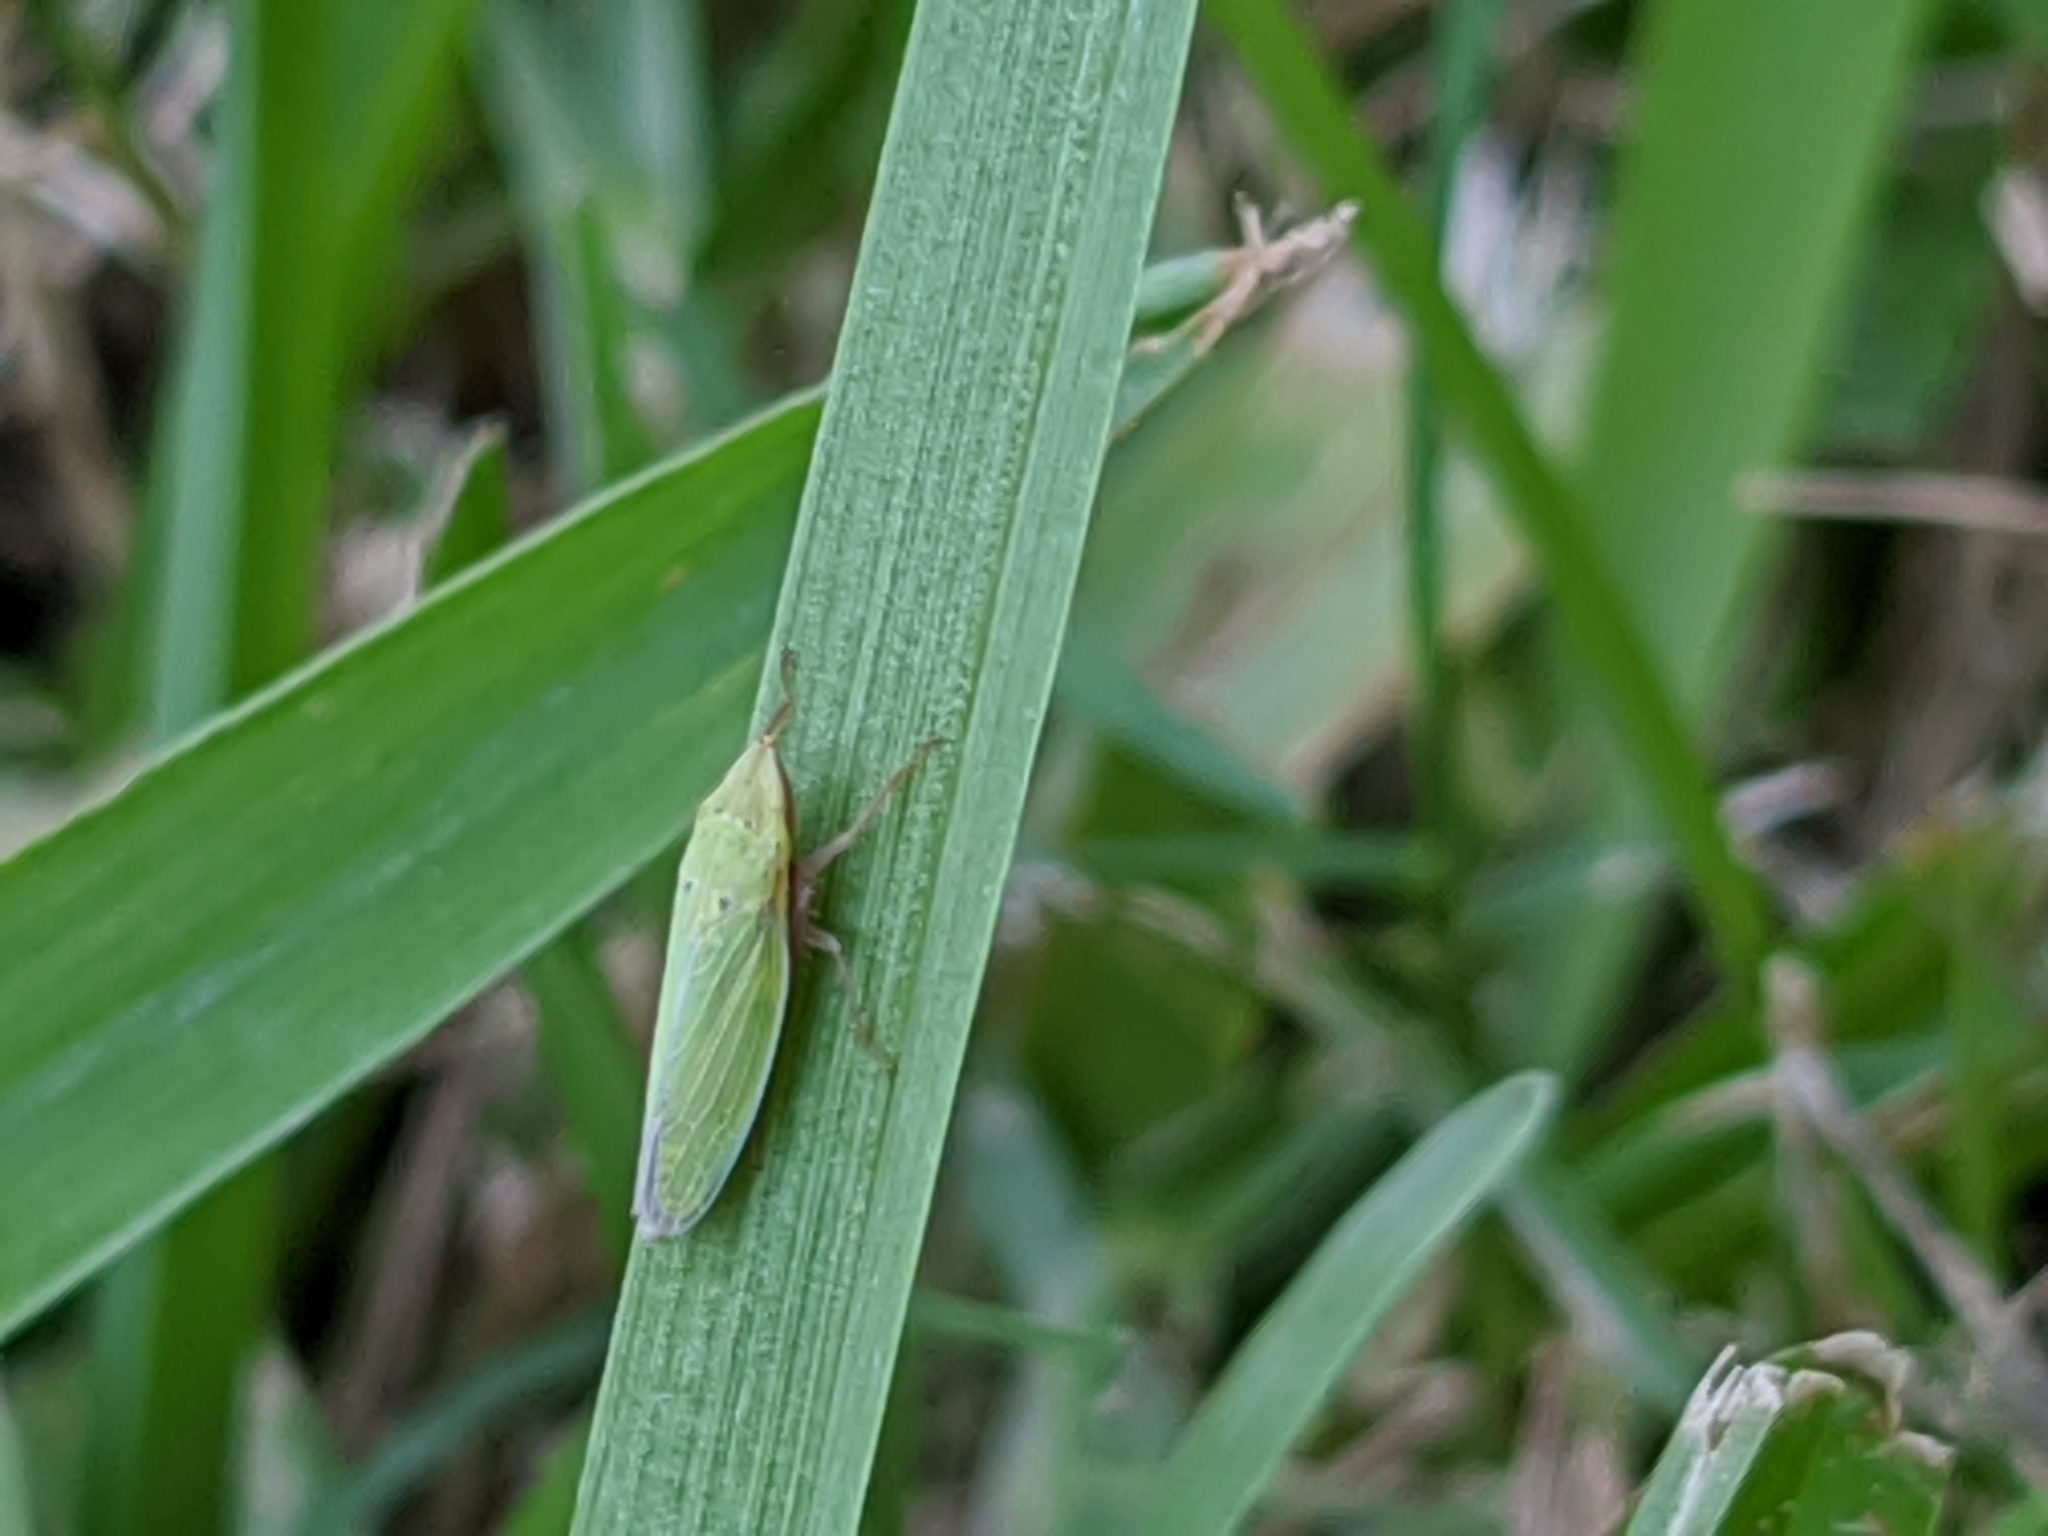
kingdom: Animalia
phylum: Arthropoda
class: Insecta
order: Hemiptera
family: Cicadellidae
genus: Draeculacephala
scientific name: Draeculacephala balli
